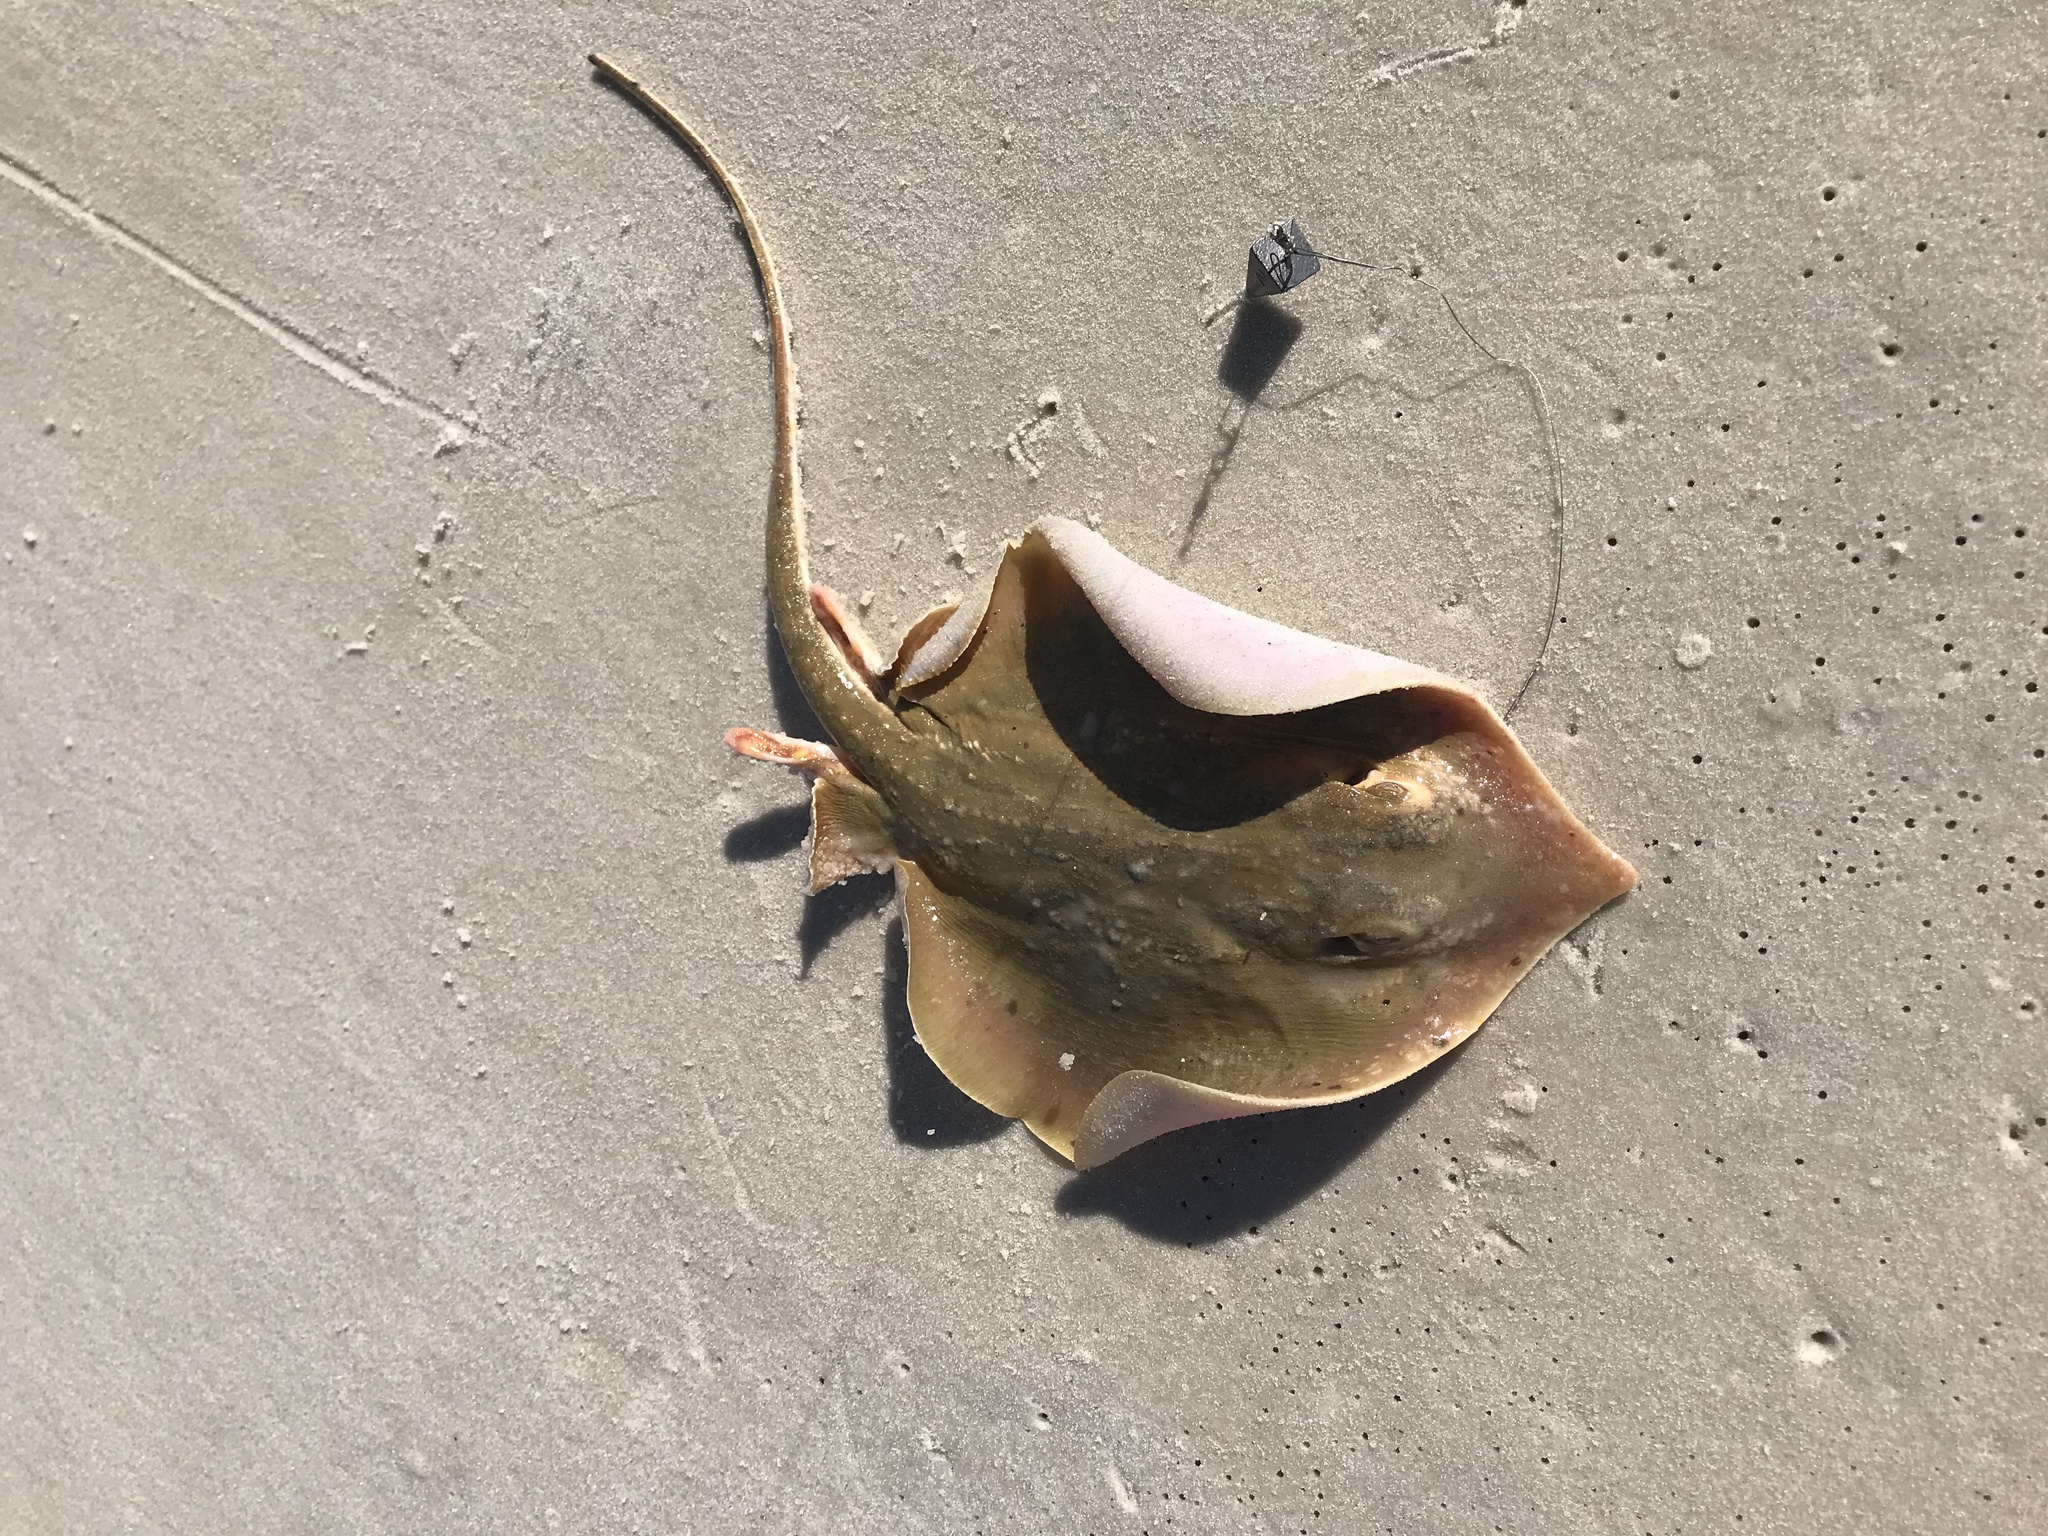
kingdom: Animalia
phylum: Chordata
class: Elasmobranchii
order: Myliobatiformes
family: Dasyatidae
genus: Hypanus
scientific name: Hypanus sabinus
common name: Atlantic stingray
